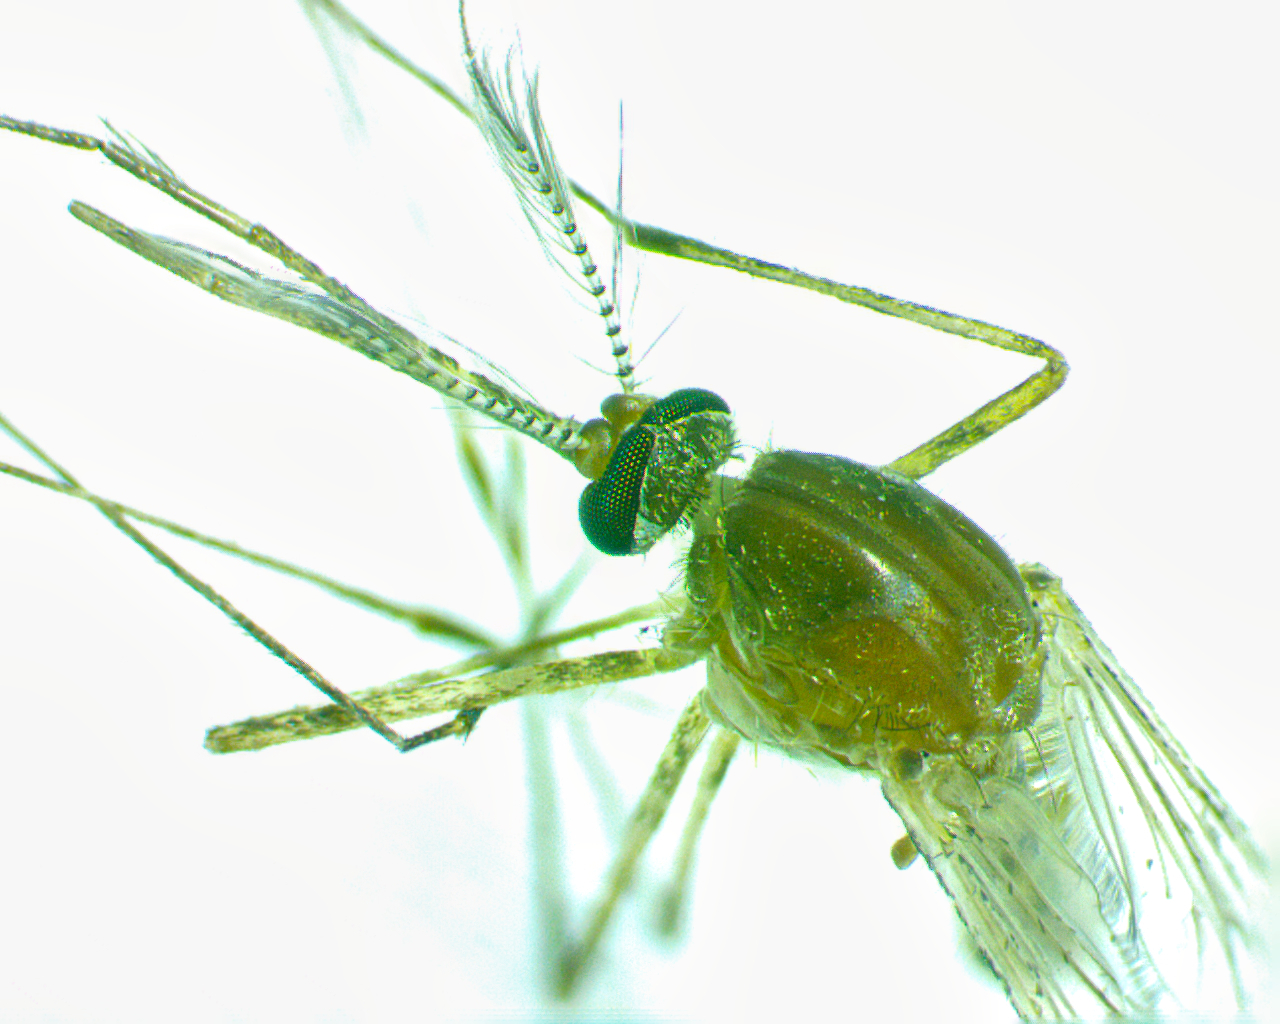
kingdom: Animalia
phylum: Arthropoda
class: Insecta
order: Diptera
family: Culicidae
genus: Culex
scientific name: Culex
